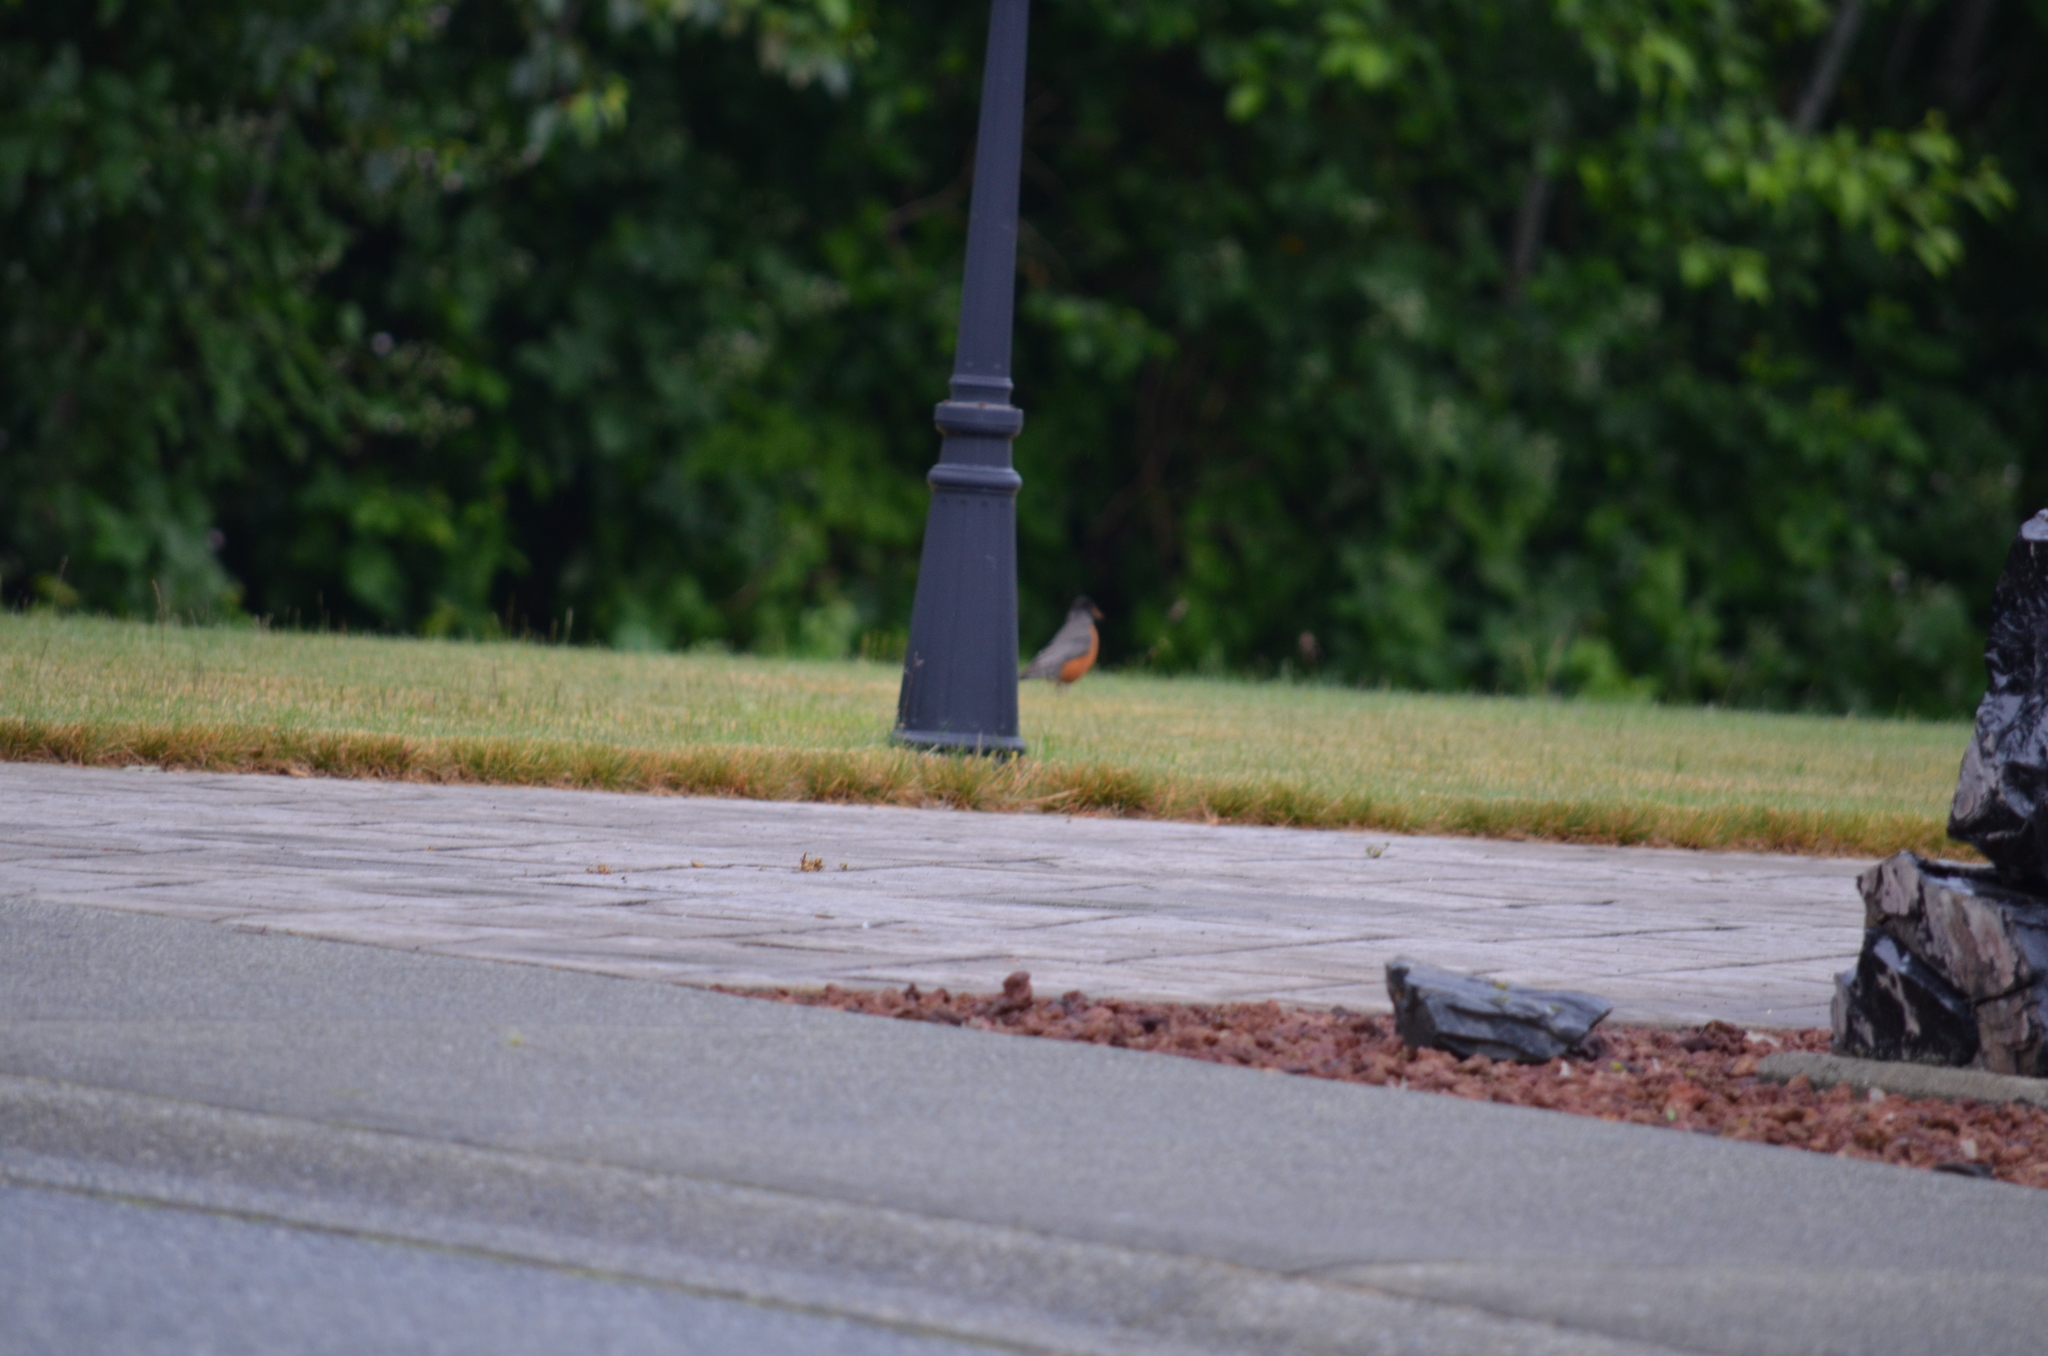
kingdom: Animalia
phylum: Chordata
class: Aves
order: Passeriformes
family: Turdidae
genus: Turdus
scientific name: Turdus migratorius
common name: American robin
